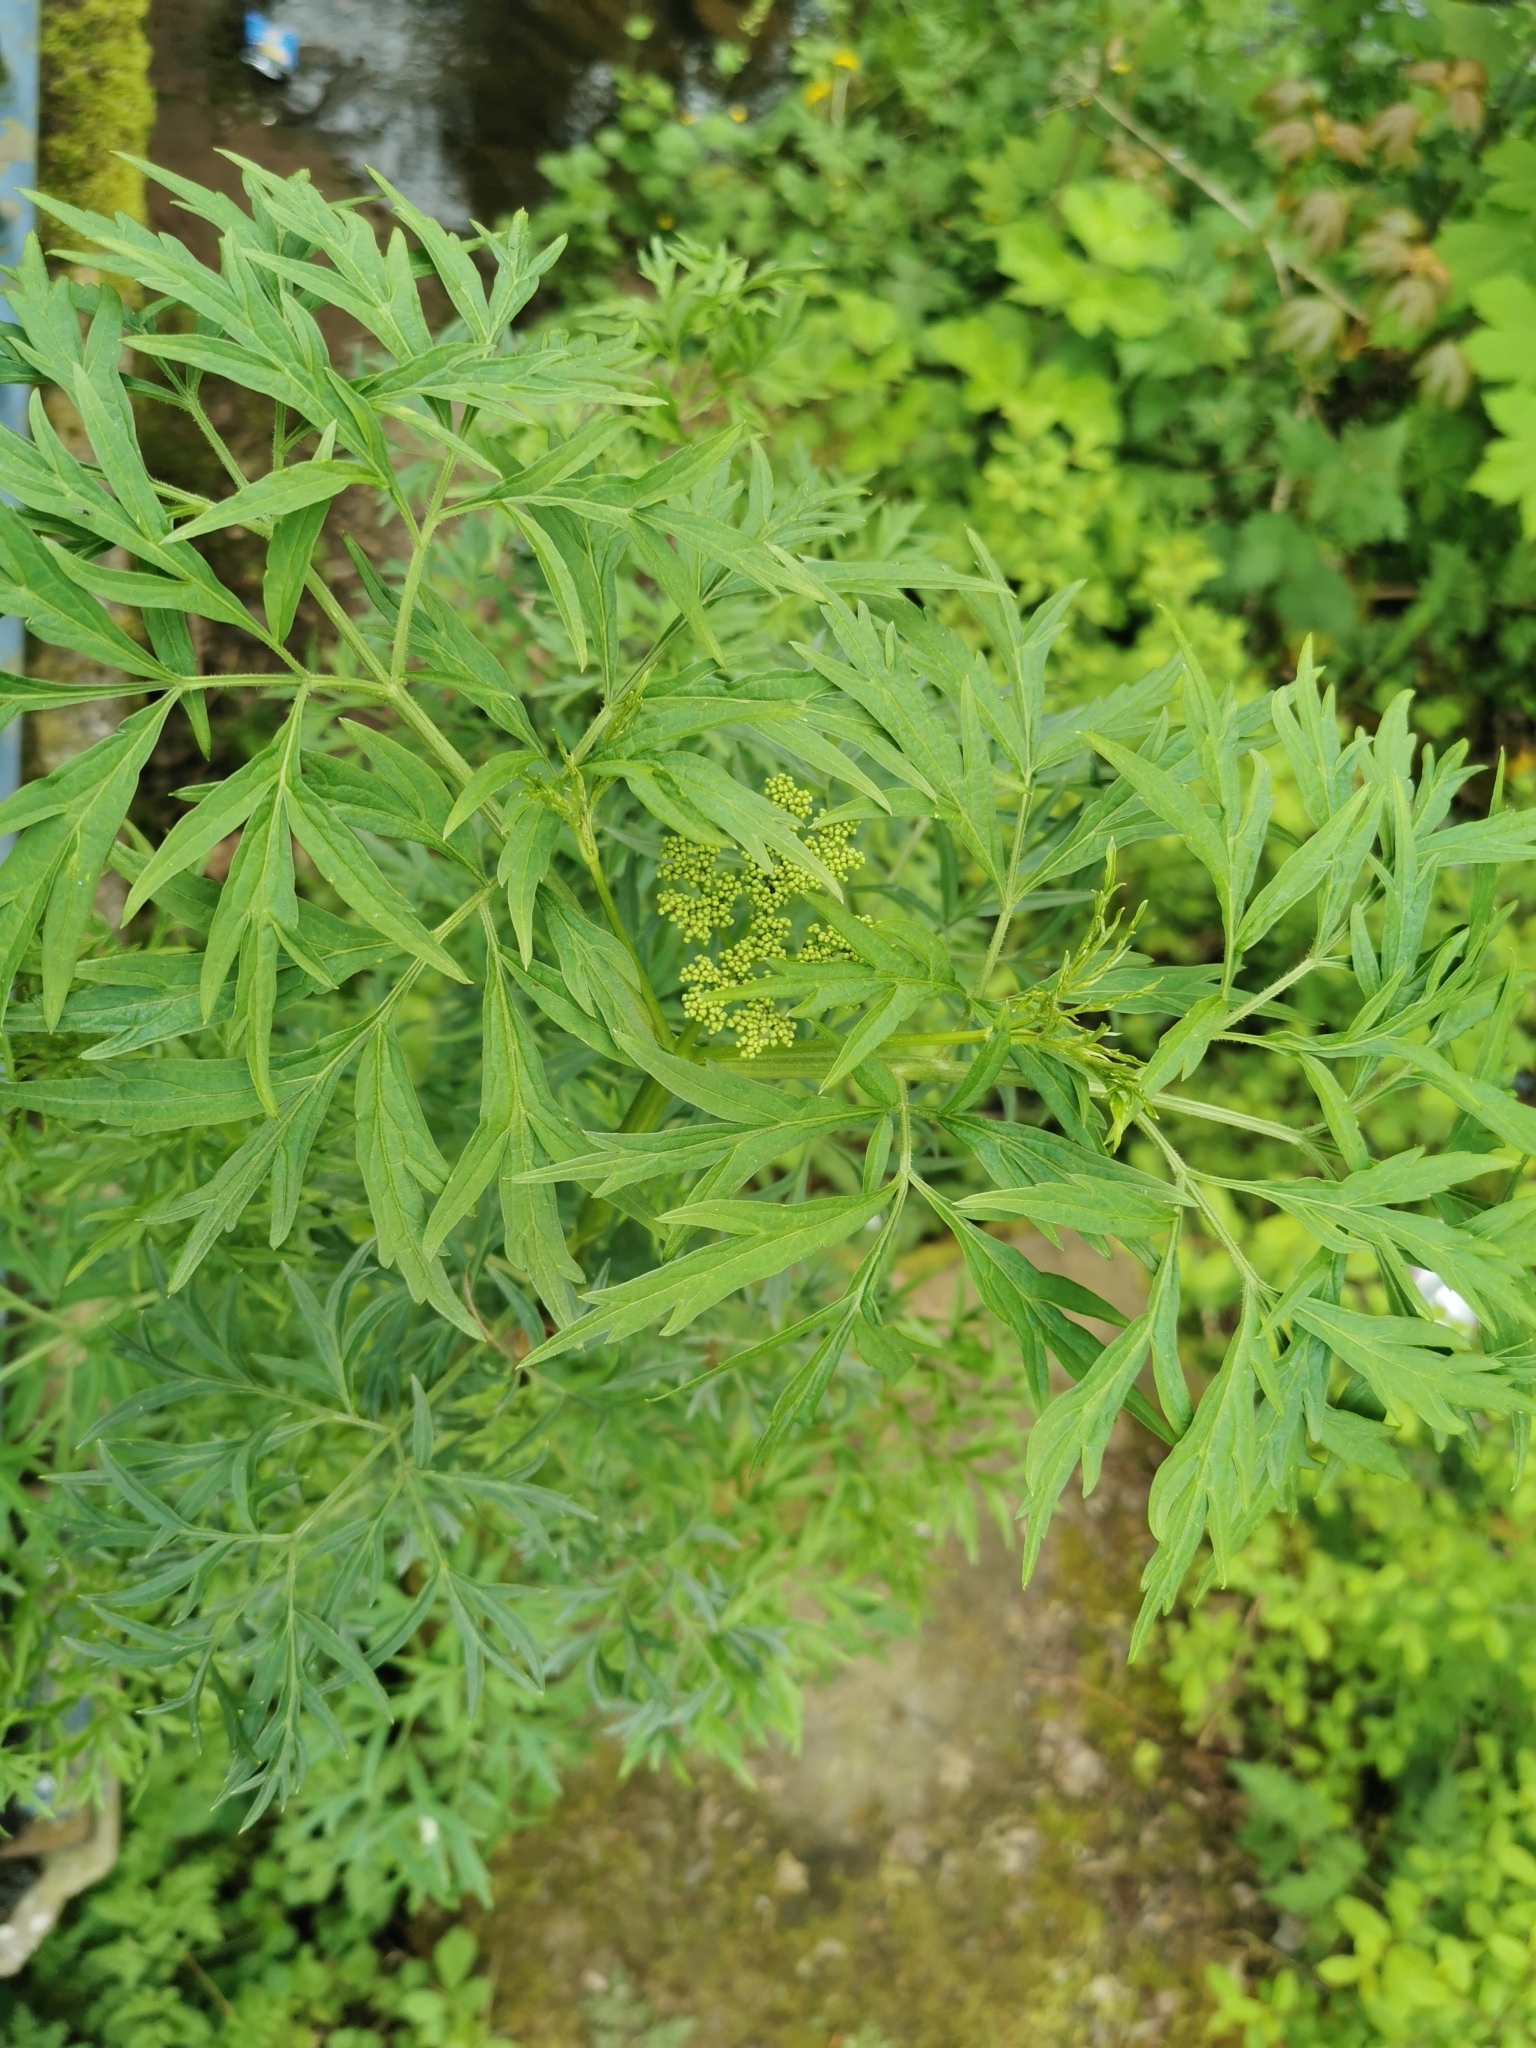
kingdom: Plantae
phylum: Tracheophyta
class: Magnoliopsida
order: Dipsacales
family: Viburnaceae
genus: Sambucus
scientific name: Sambucus nigra
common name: Elder
